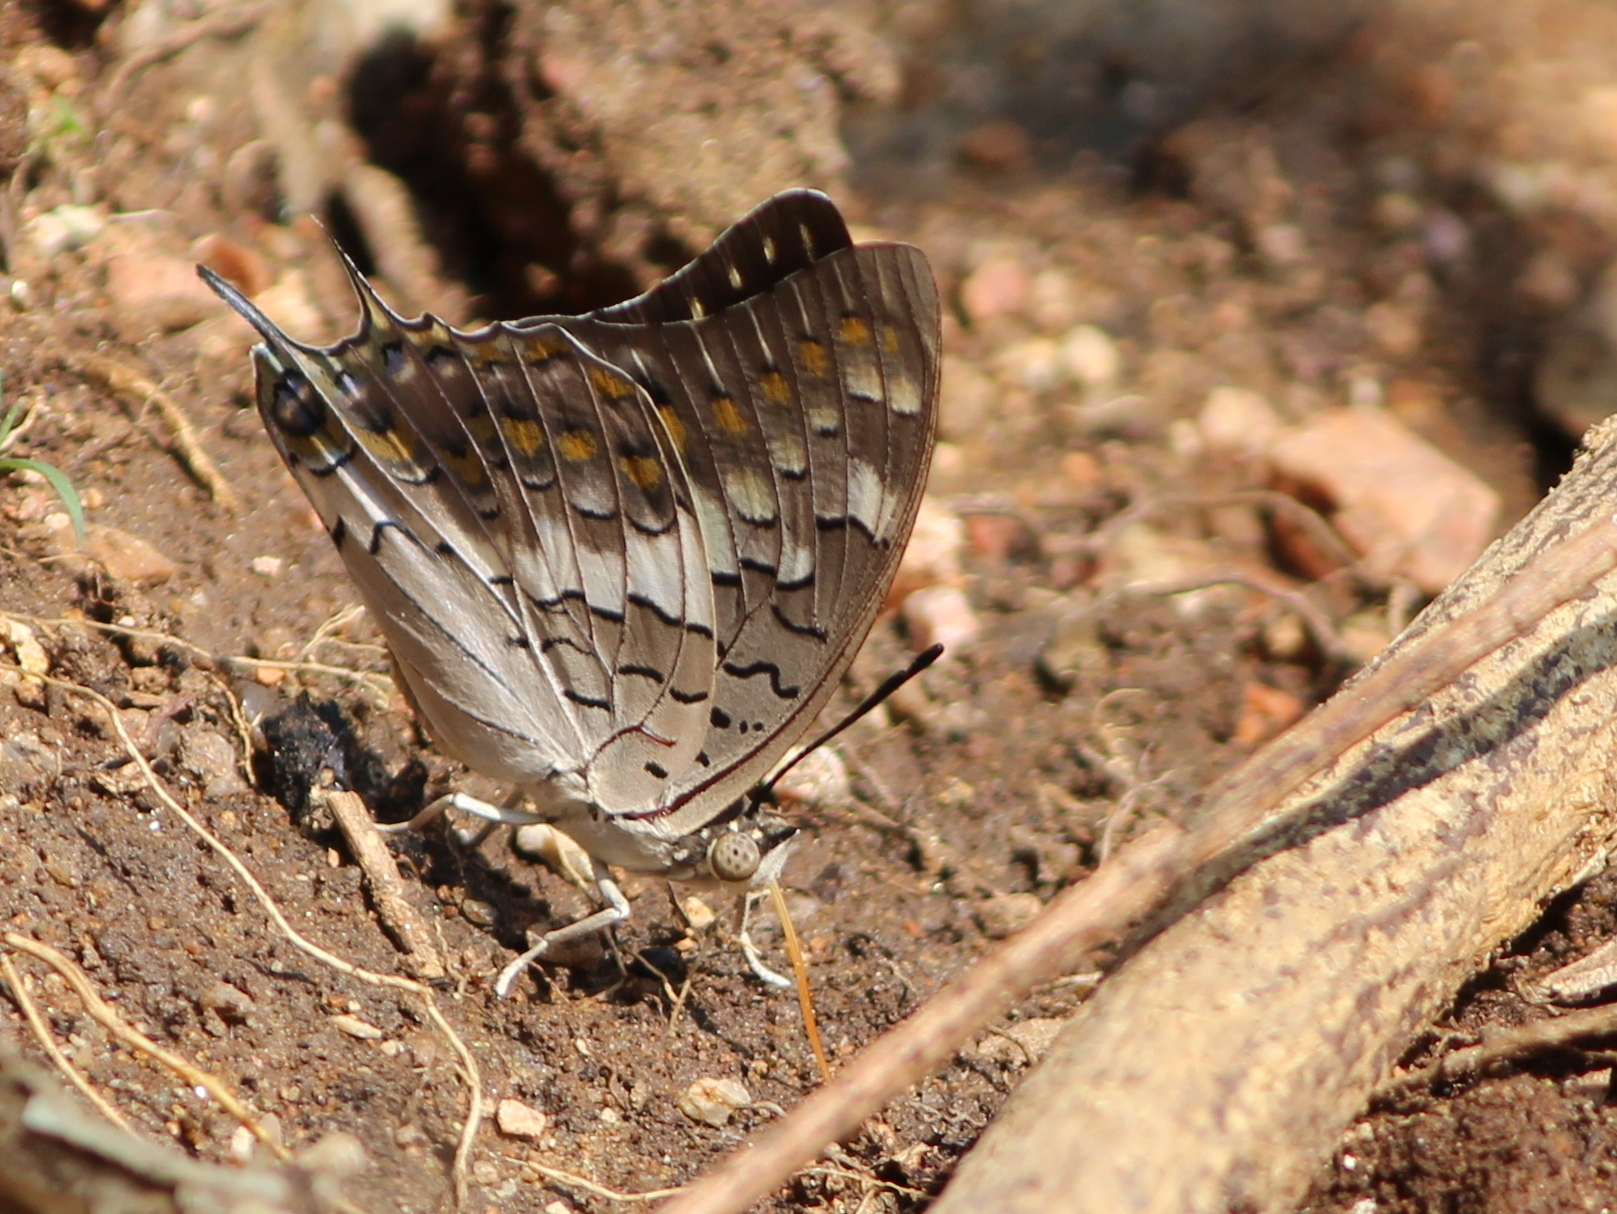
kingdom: Animalia
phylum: Arthropoda
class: Insecta
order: Lepidoptera
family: Nymphalidae
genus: Charaxes
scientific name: Charaxes solon
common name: Black rajah
